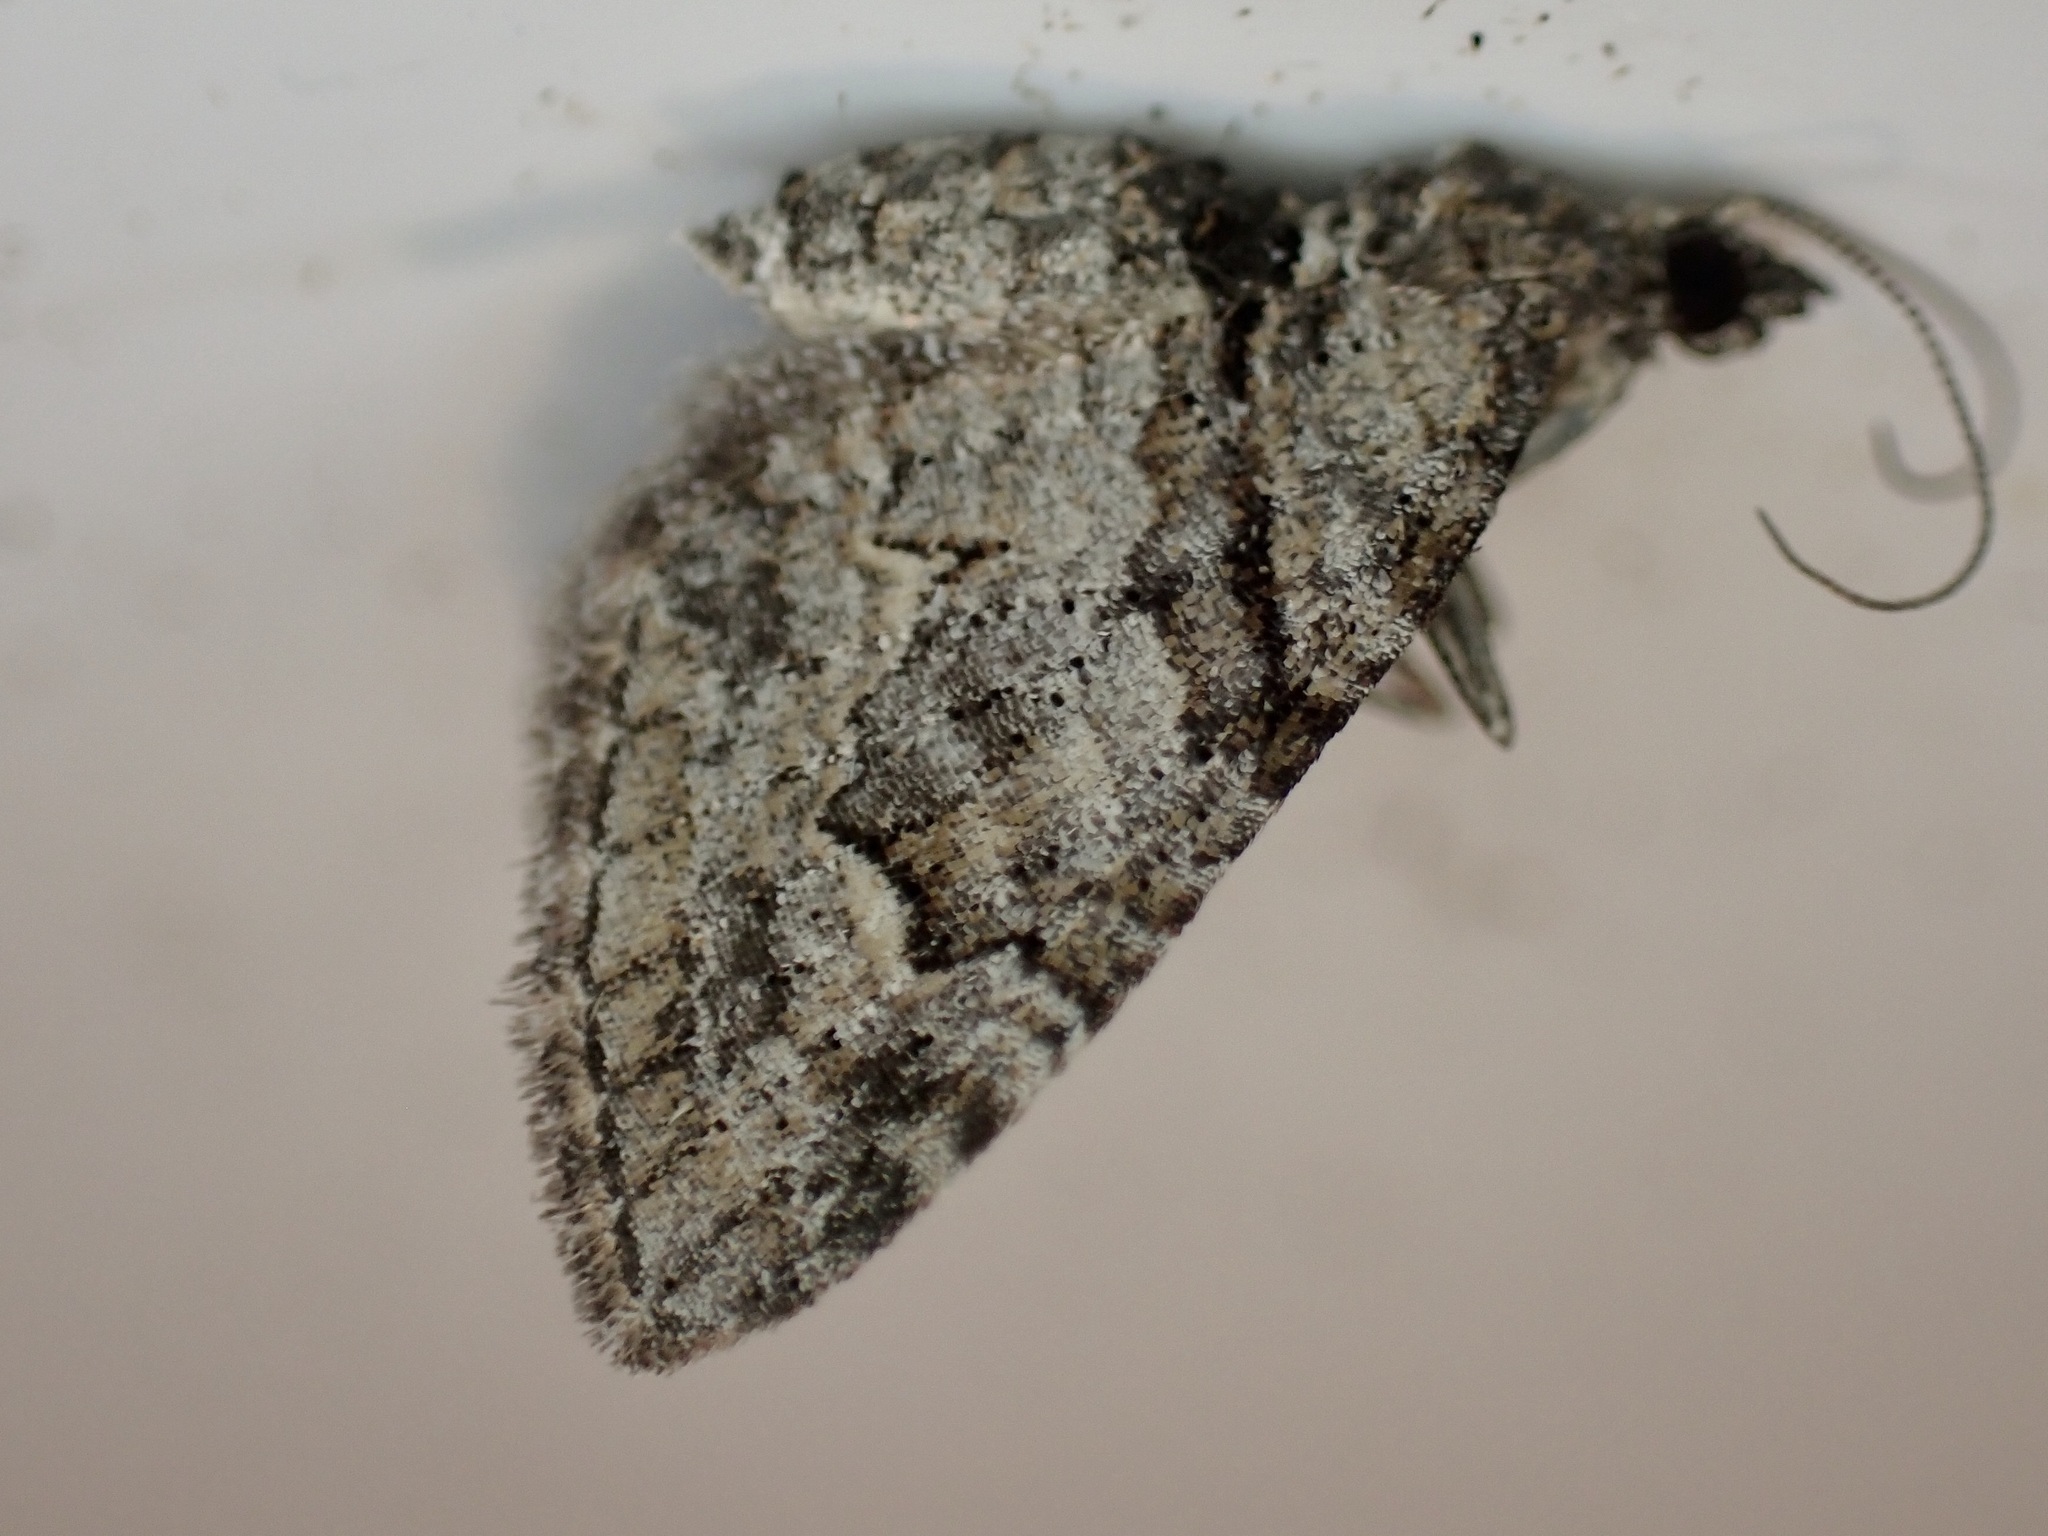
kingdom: Animalia
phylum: Arthropoda
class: Insecta
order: Lepidoptera
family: Geometridae
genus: Phrissogonus
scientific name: Phrissogonus laticostata
